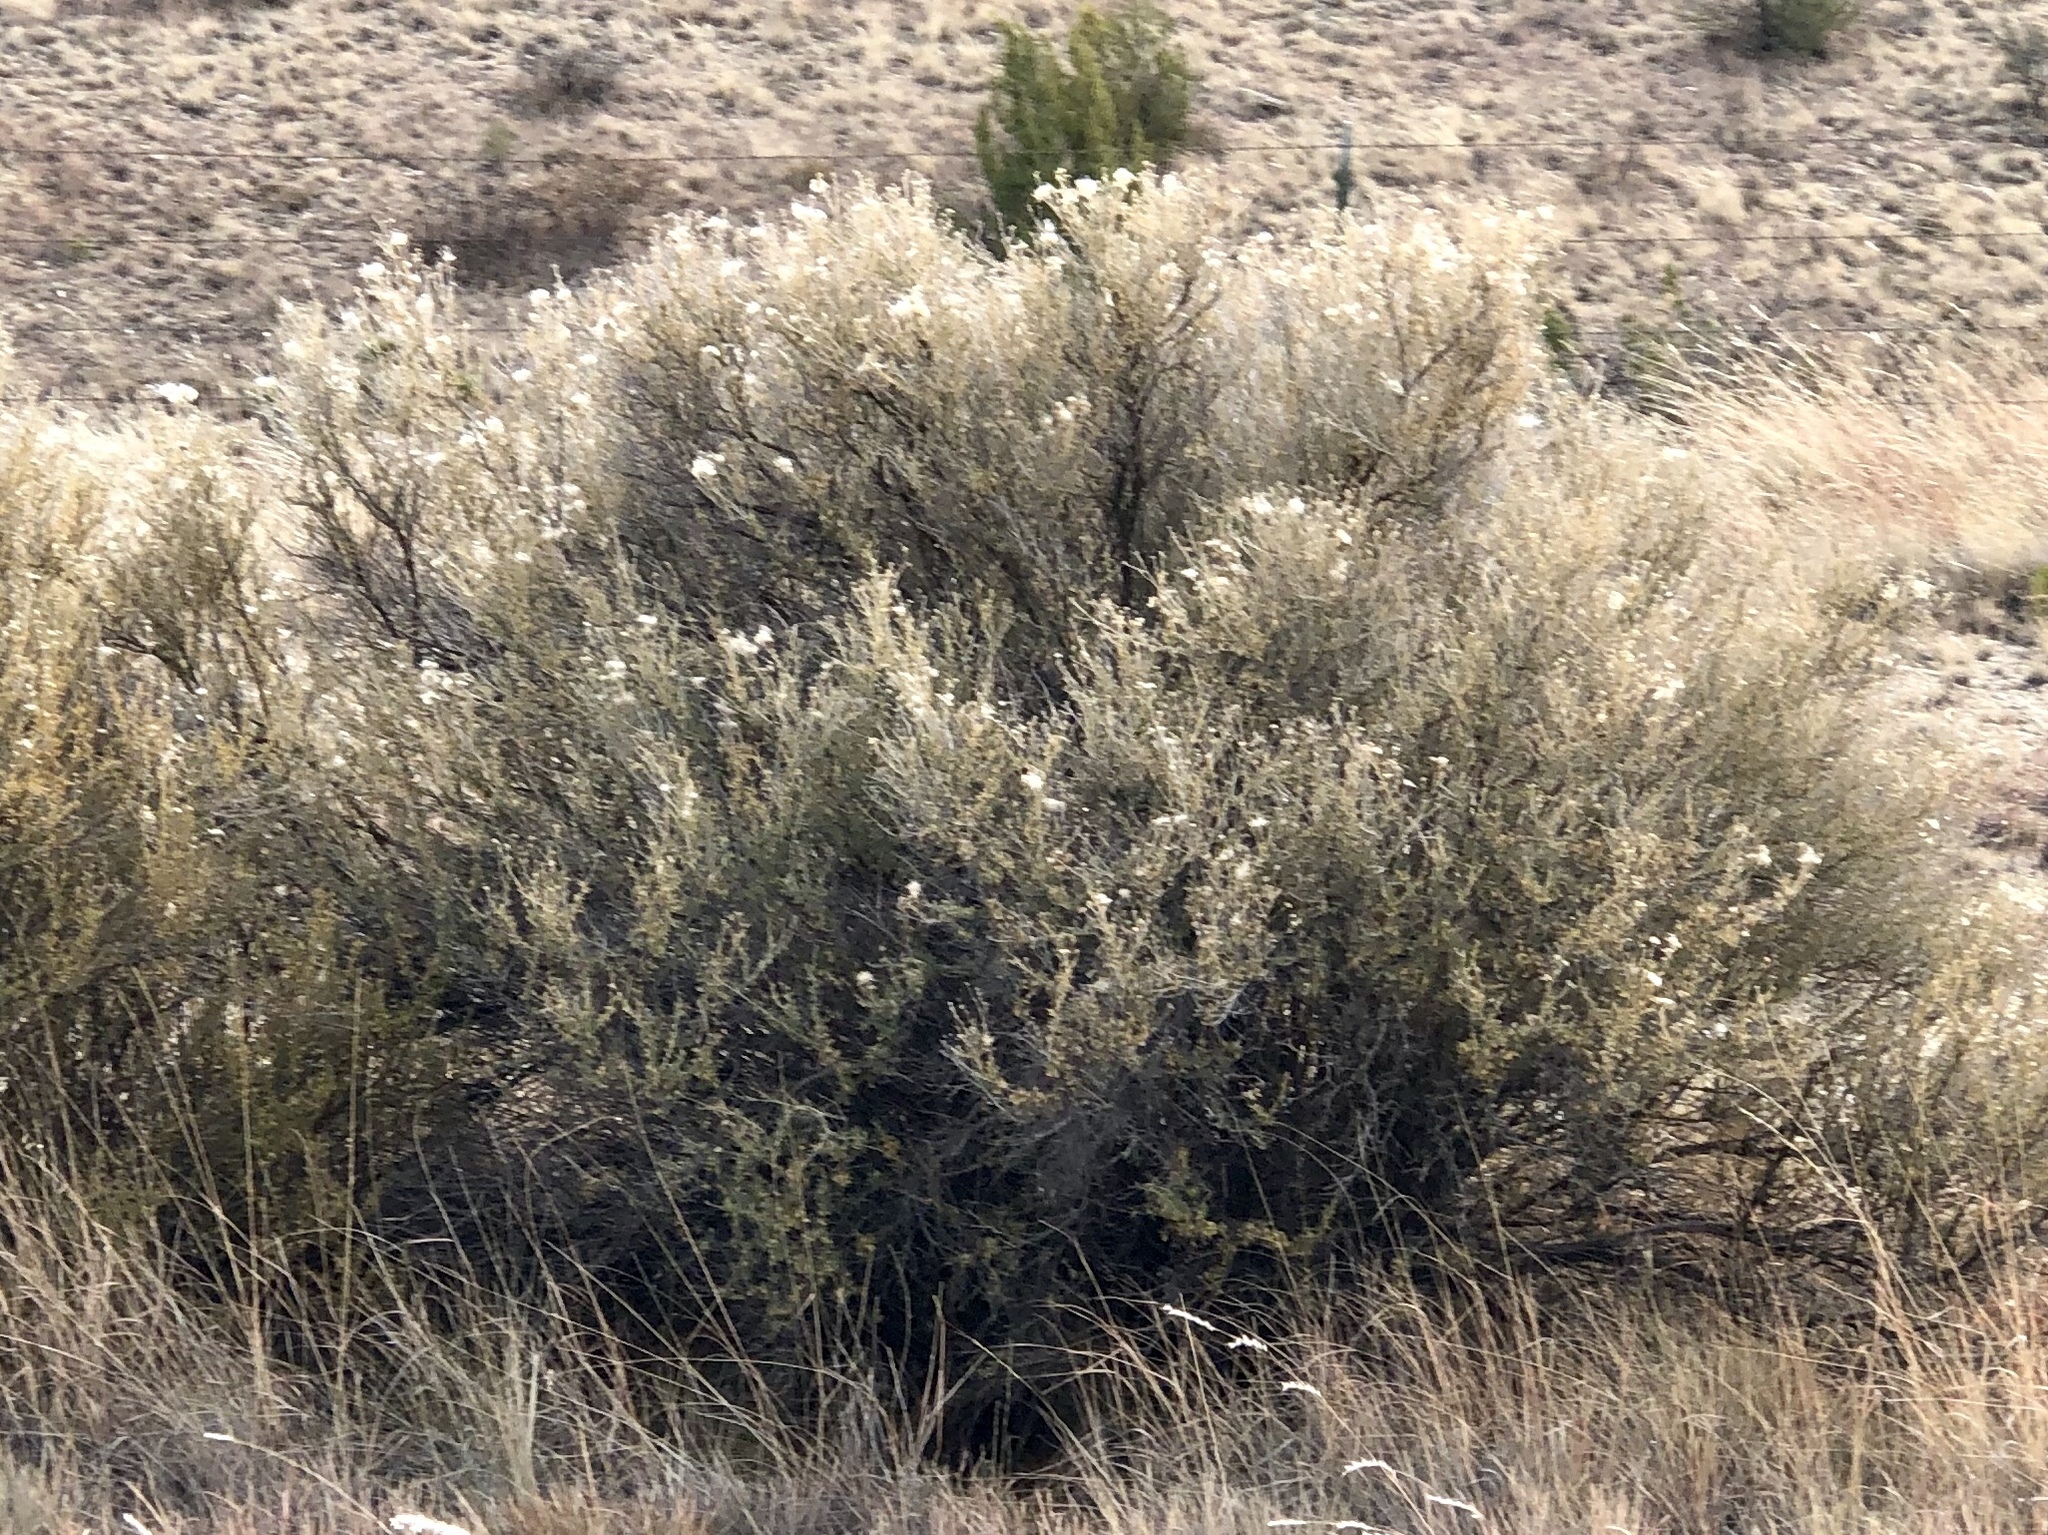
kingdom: Plantae
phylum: Tracheophyta
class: Magnoliopsida
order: Rosales
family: Rosaceae
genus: Fallugia
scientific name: Fallugia paradoxa
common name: Apache-plume
